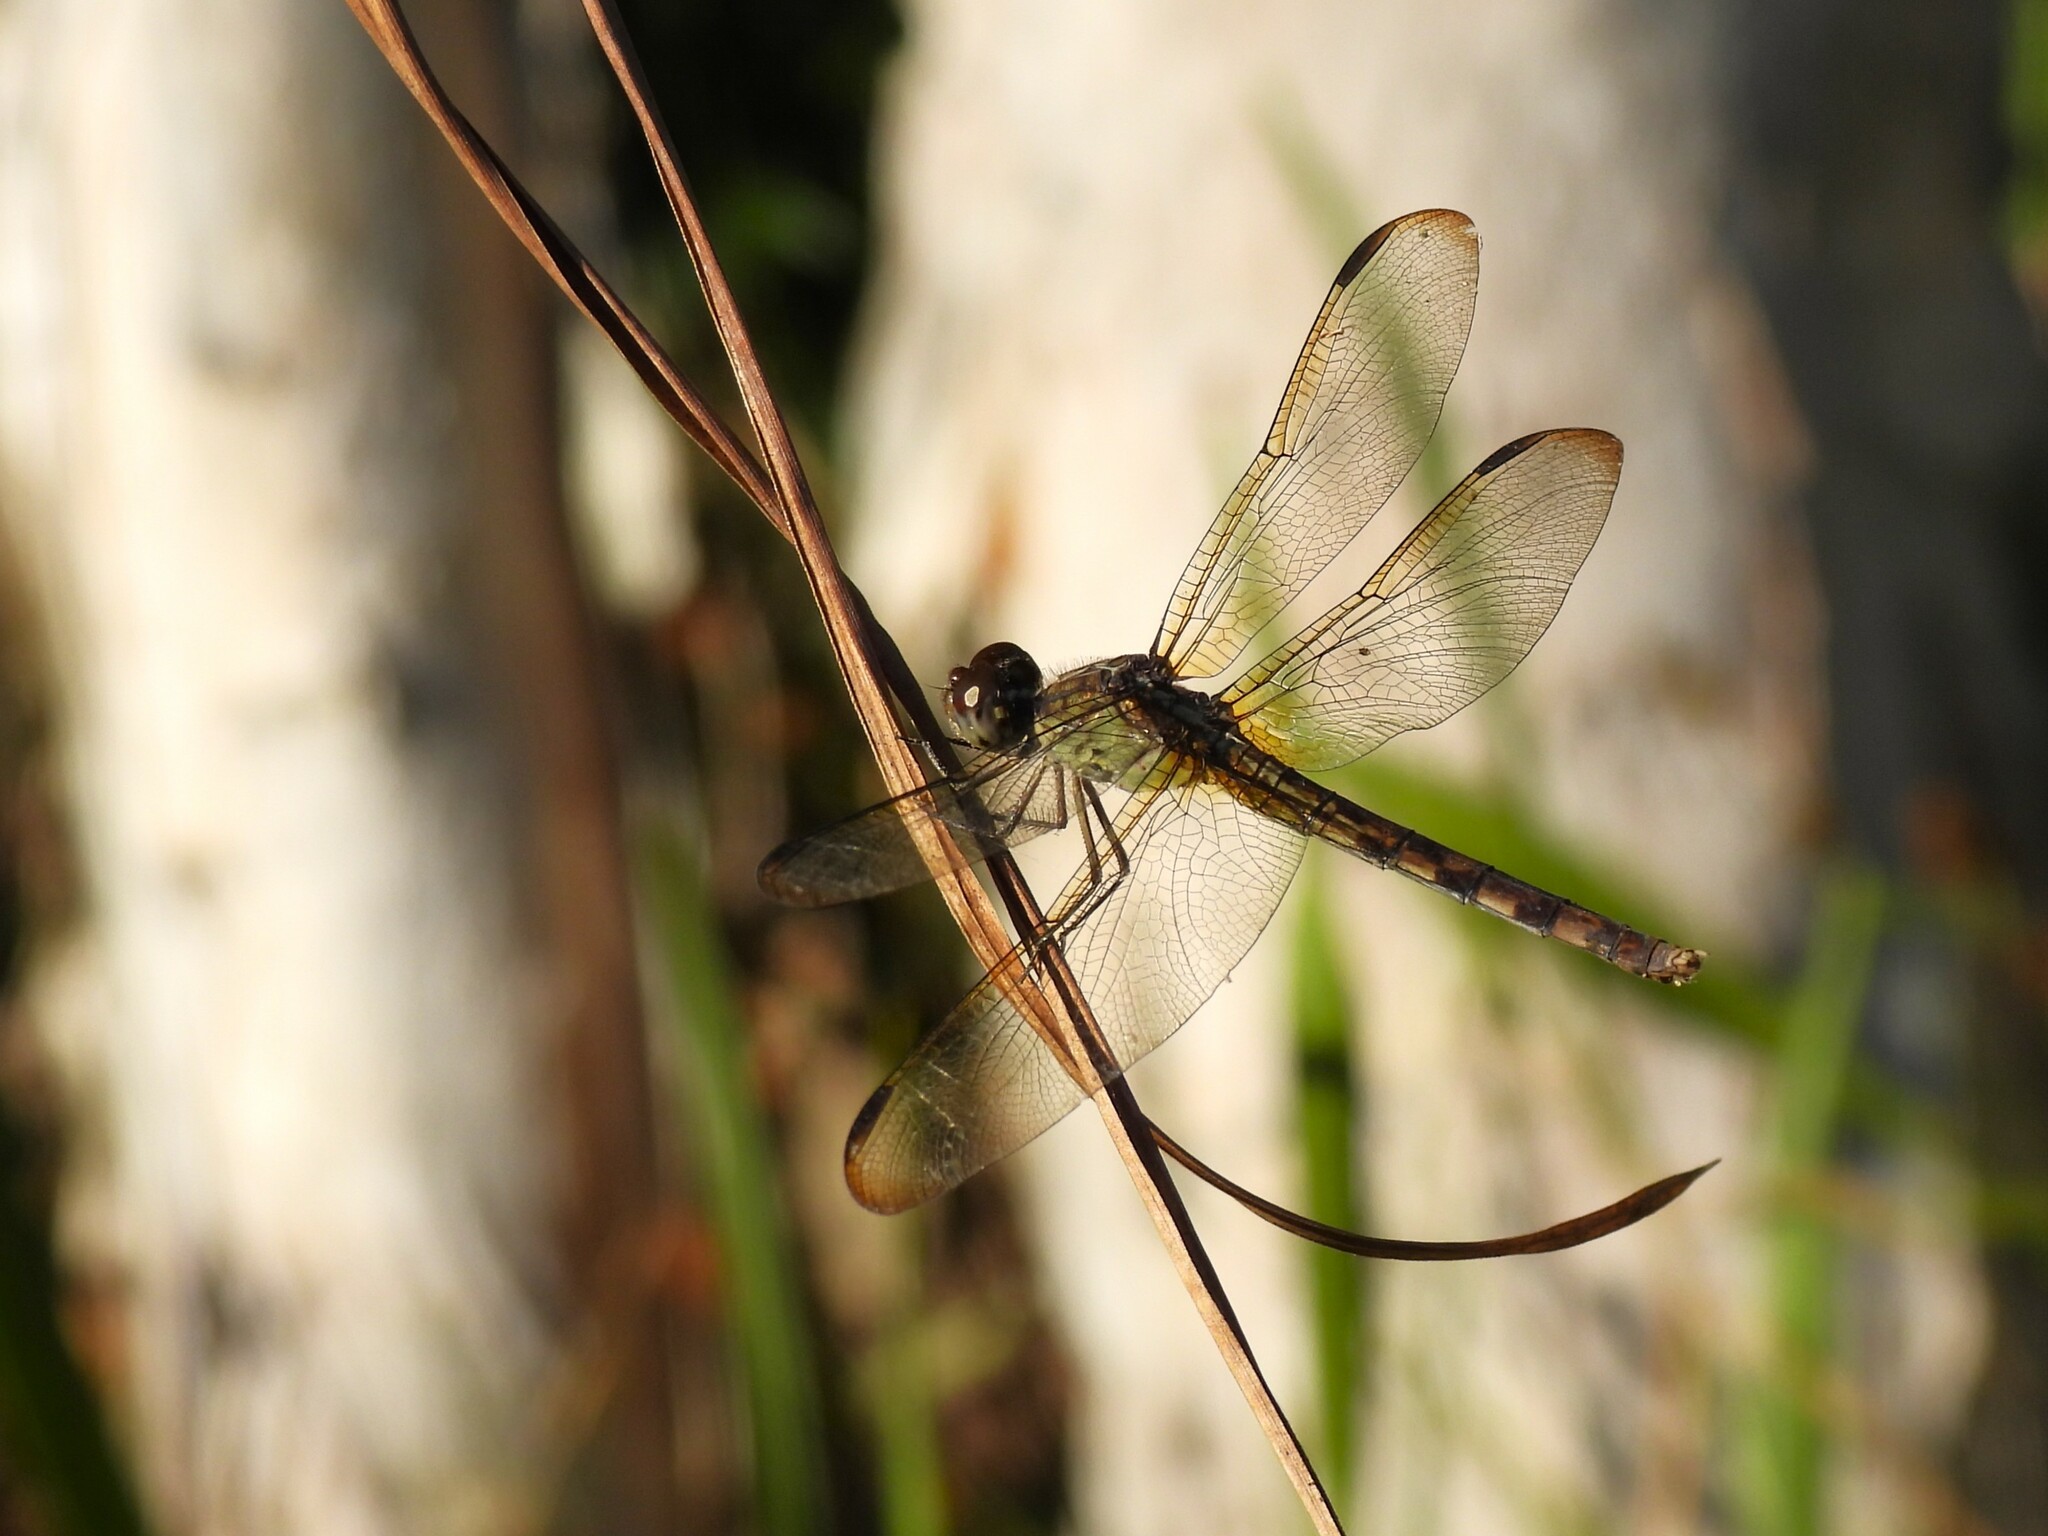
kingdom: Animalia
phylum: Arthropoda
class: Insecta
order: Odonata
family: Libellulidae
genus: Erythrodiplax
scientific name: Erythrodiplax umbrata
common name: Band-winged dragonlet
